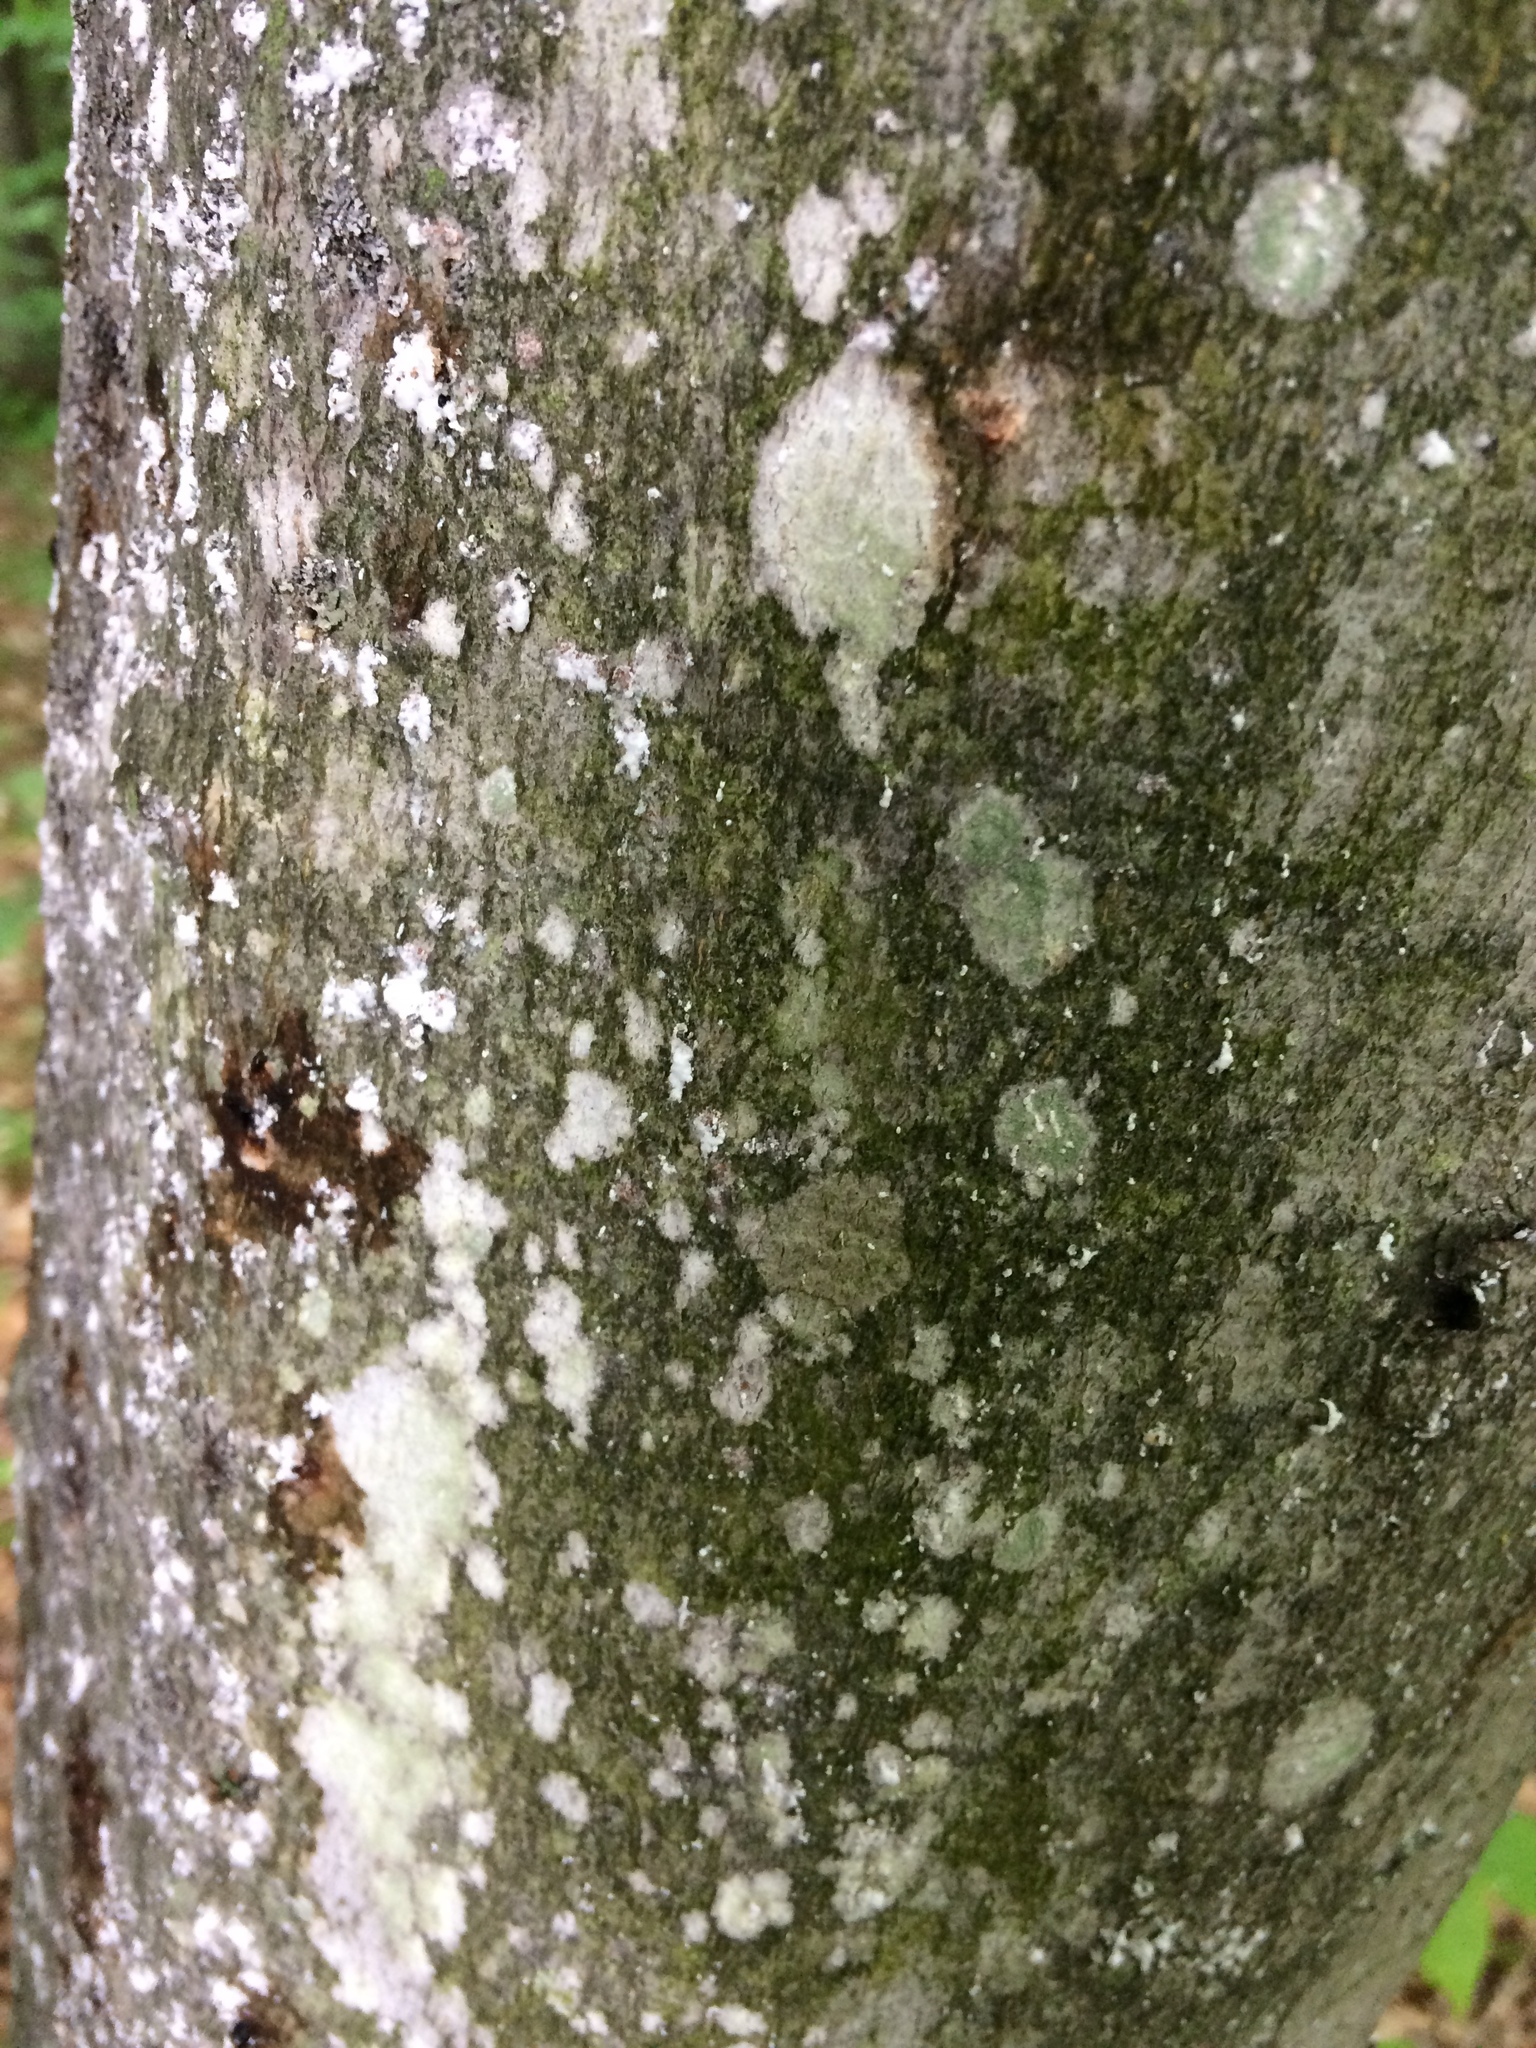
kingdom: Animalia
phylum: Arthropoda
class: Insecta
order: Hemiptera
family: Eriococcidae
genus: Cryptococcus
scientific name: Cryptococcus fagisuga
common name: Beech scale
